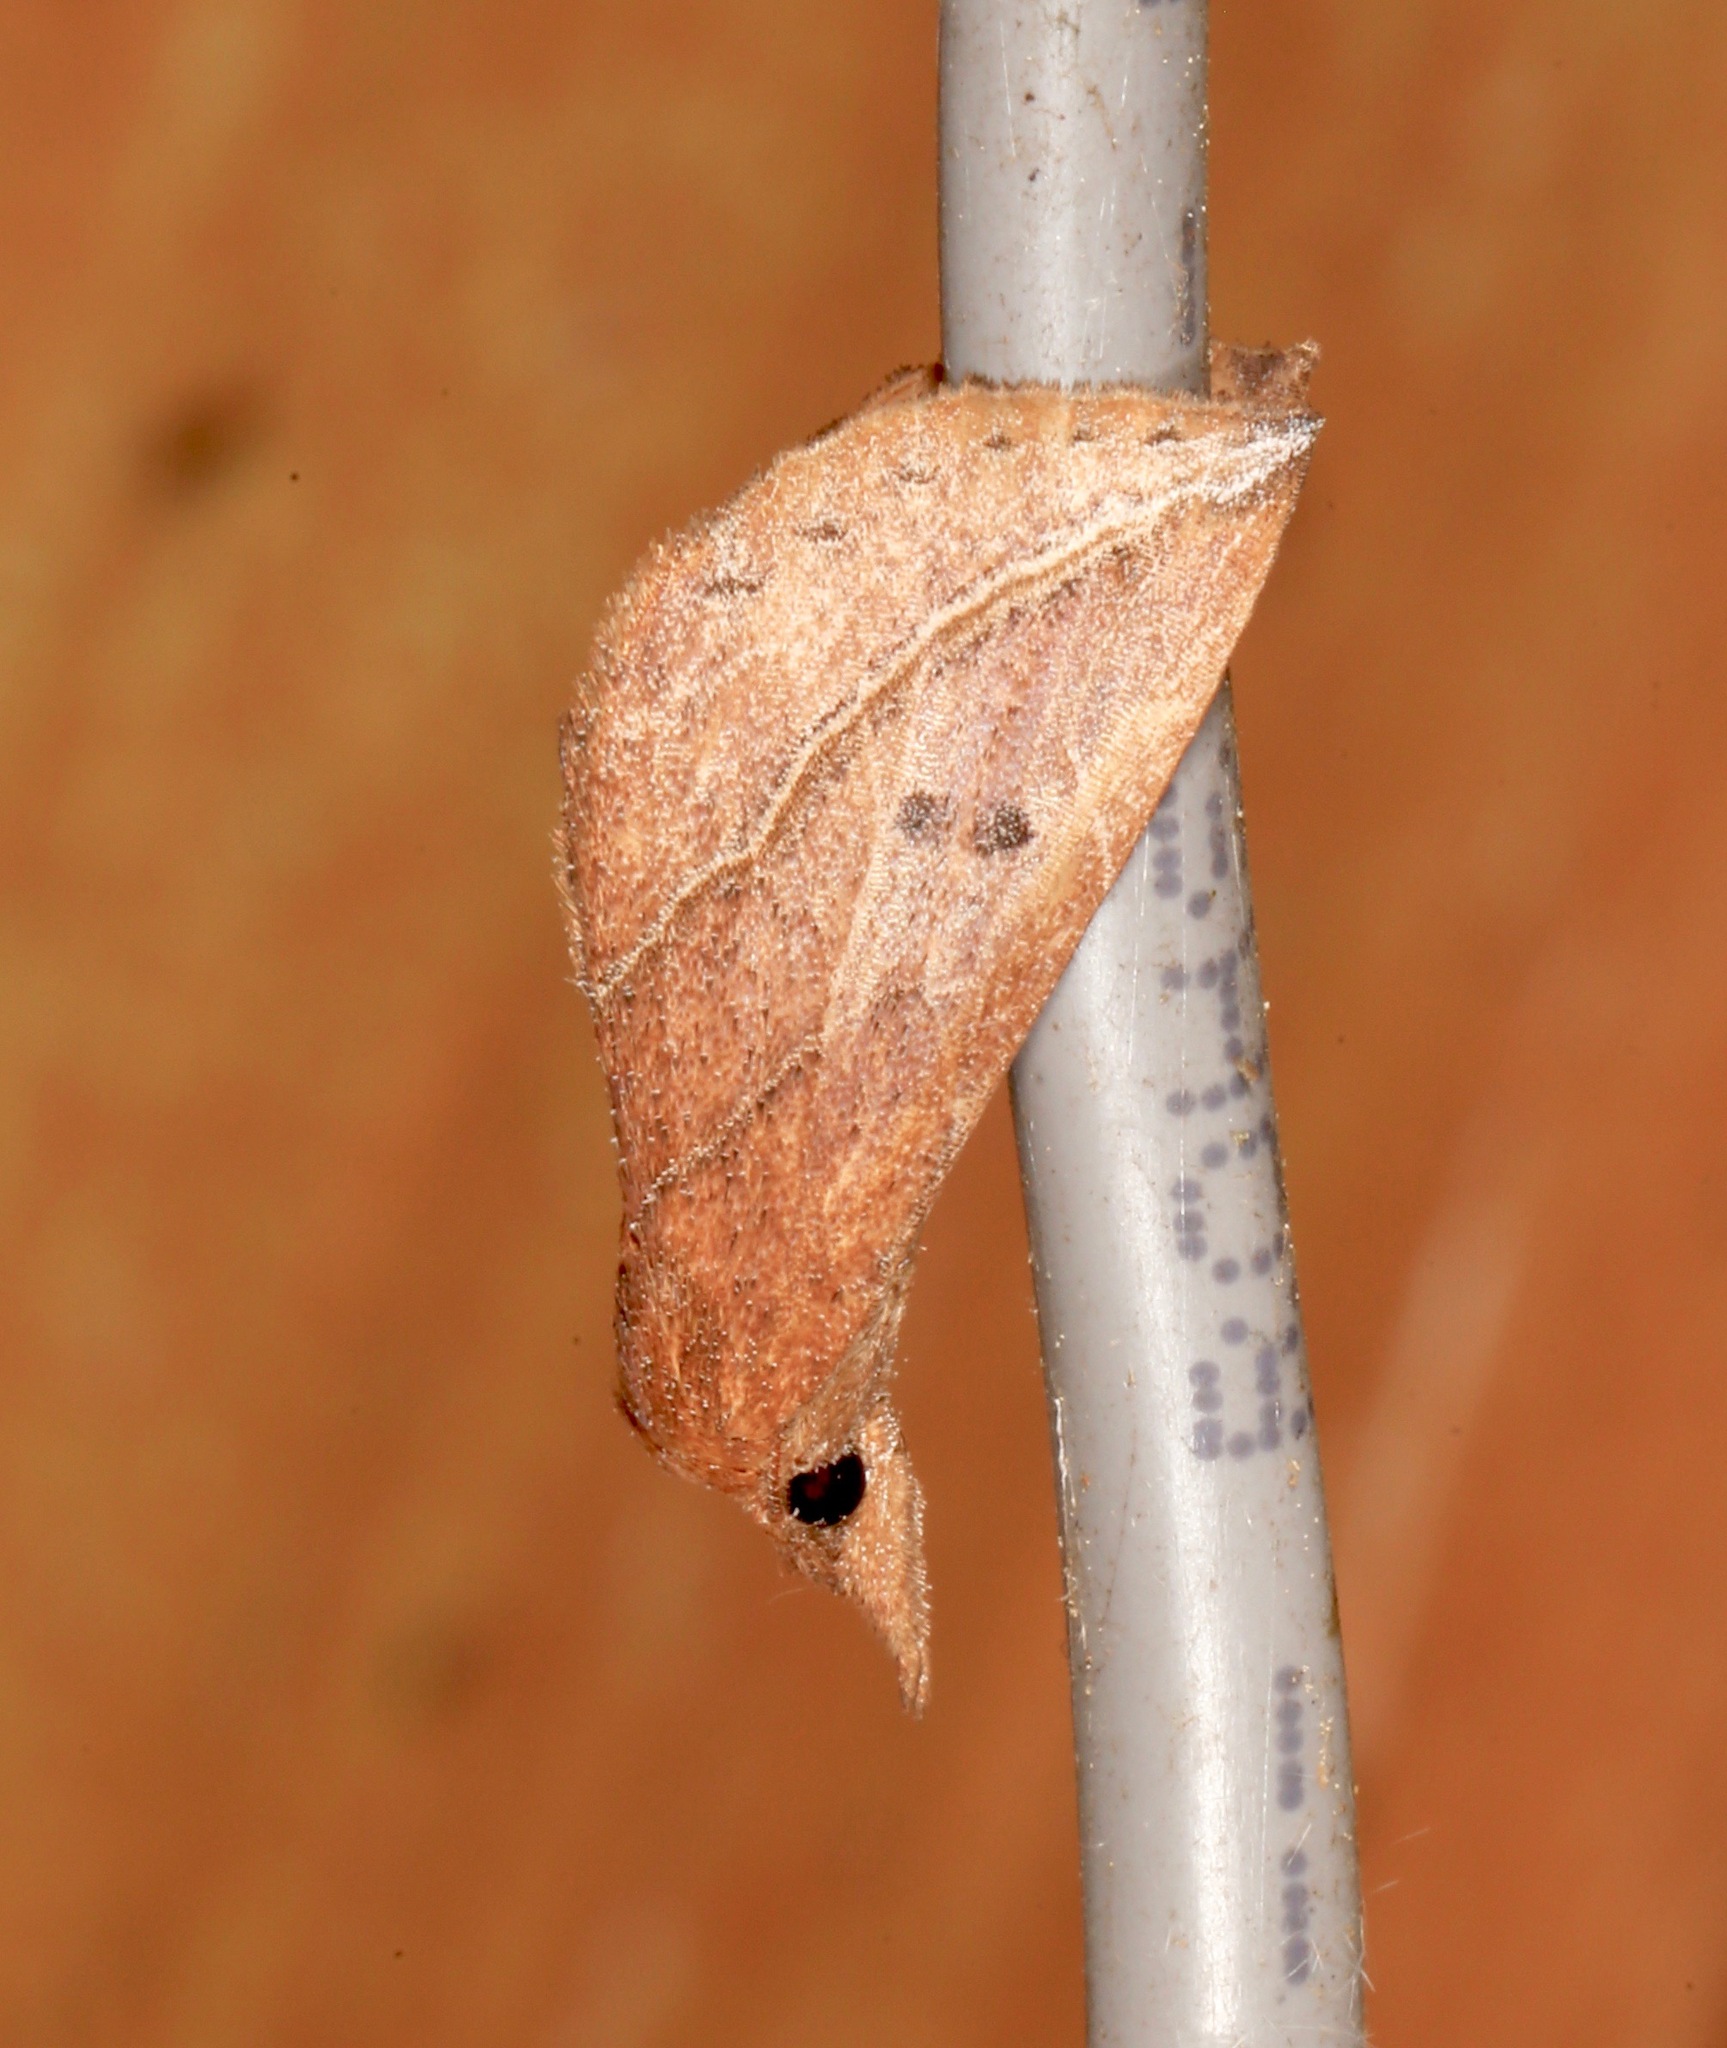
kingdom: Animalia
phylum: Arthropoda
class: Insecta
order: Lepidoptera
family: Erebidae
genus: Phyprosopus
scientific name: Phyprosopus callitrichoides
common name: Curved-lined owlet
